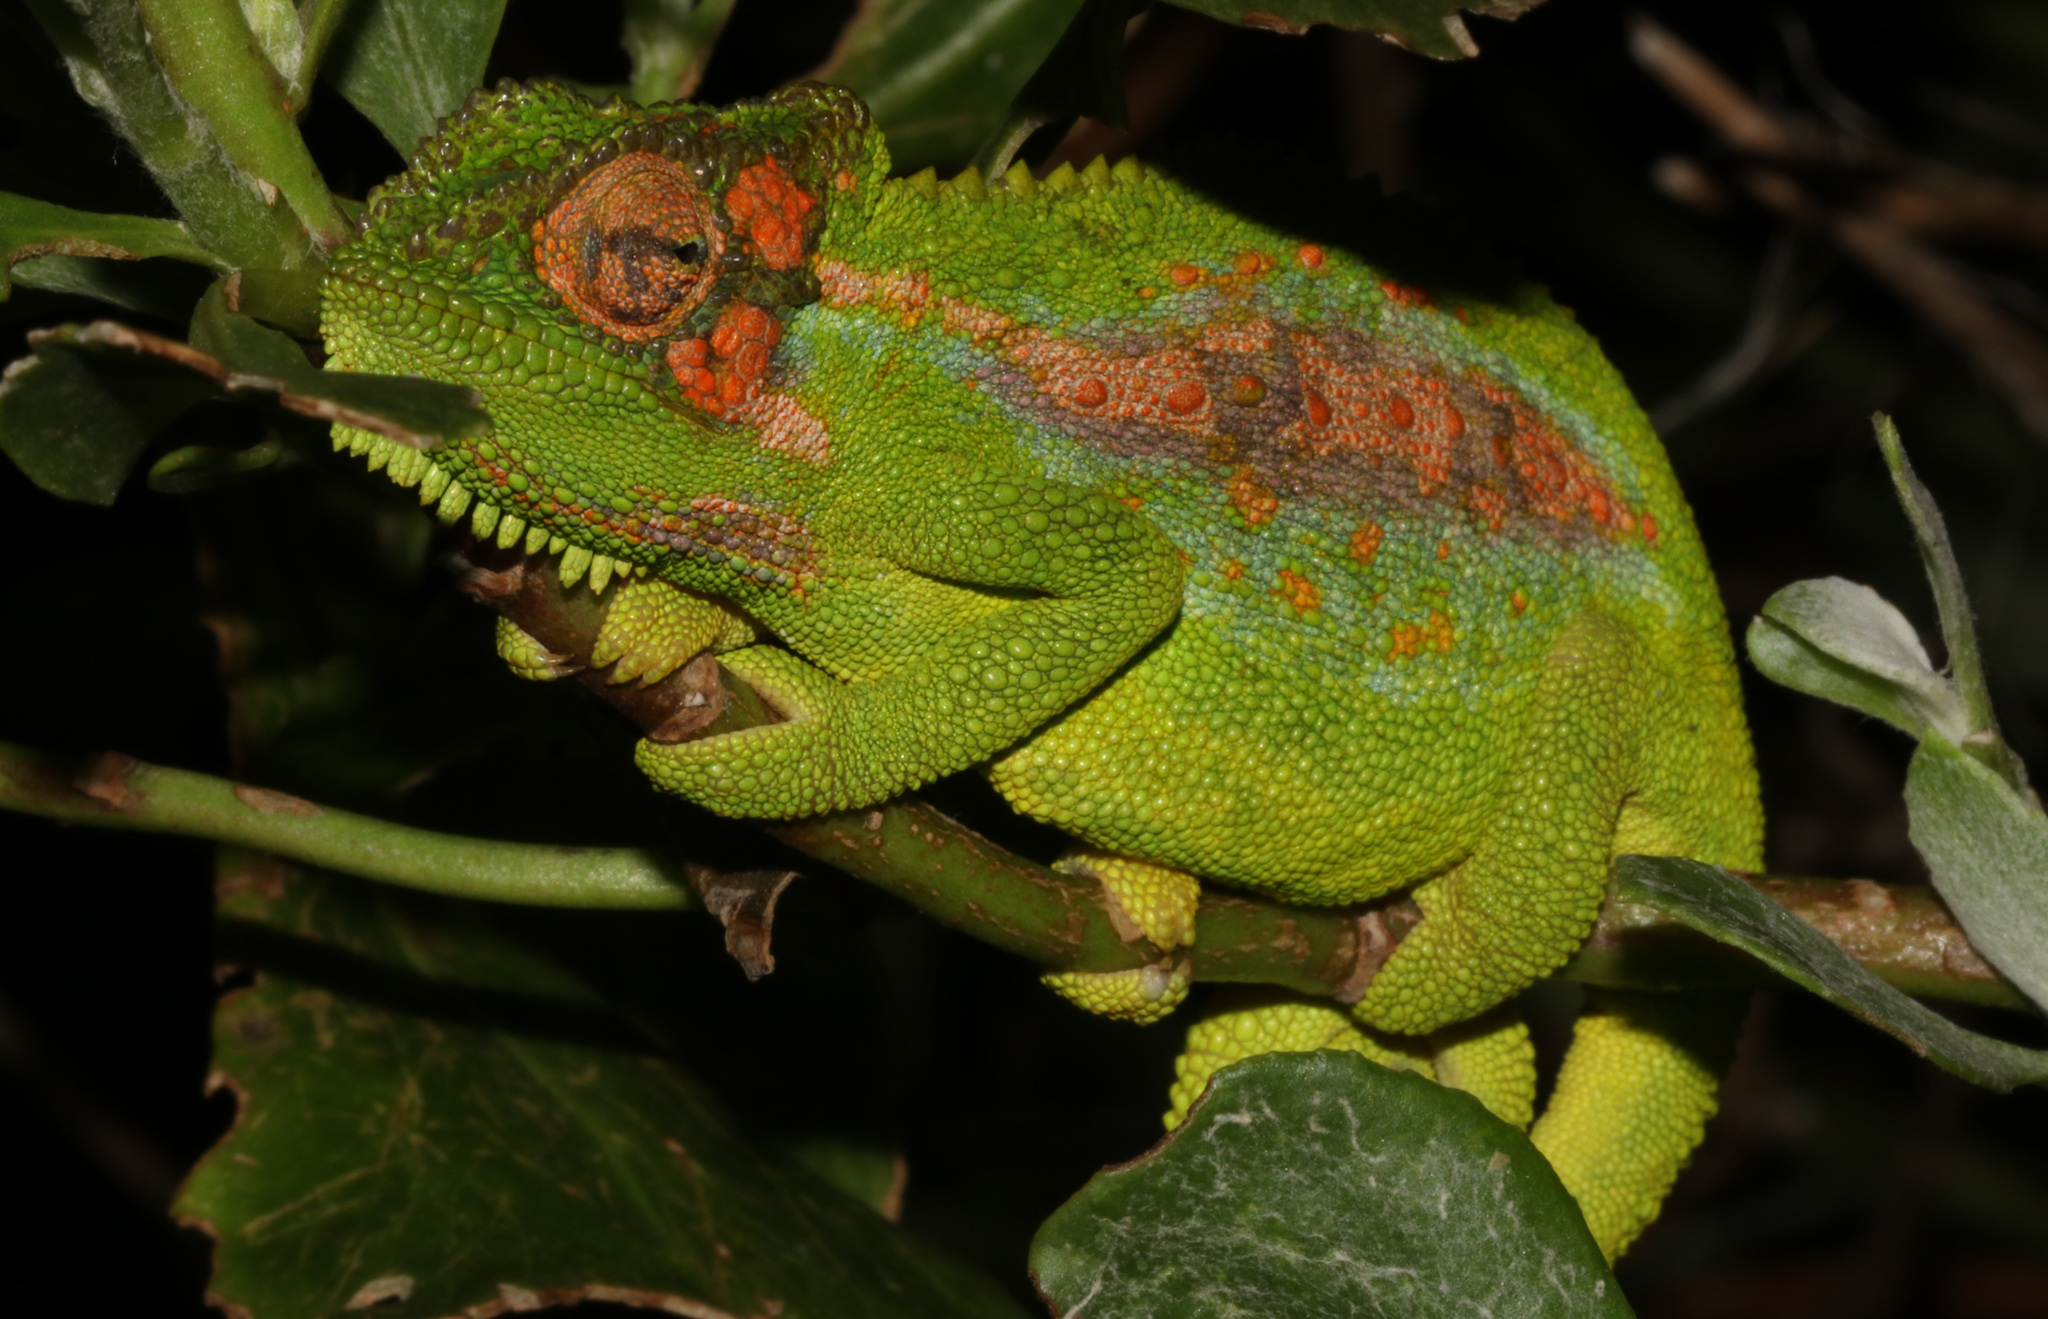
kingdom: Animalia
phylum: Chordata
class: Squamata
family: Chamaeleonidae
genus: Bradypodion
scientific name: Bradypodion pumilum
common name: Cape dwarf chameleon
